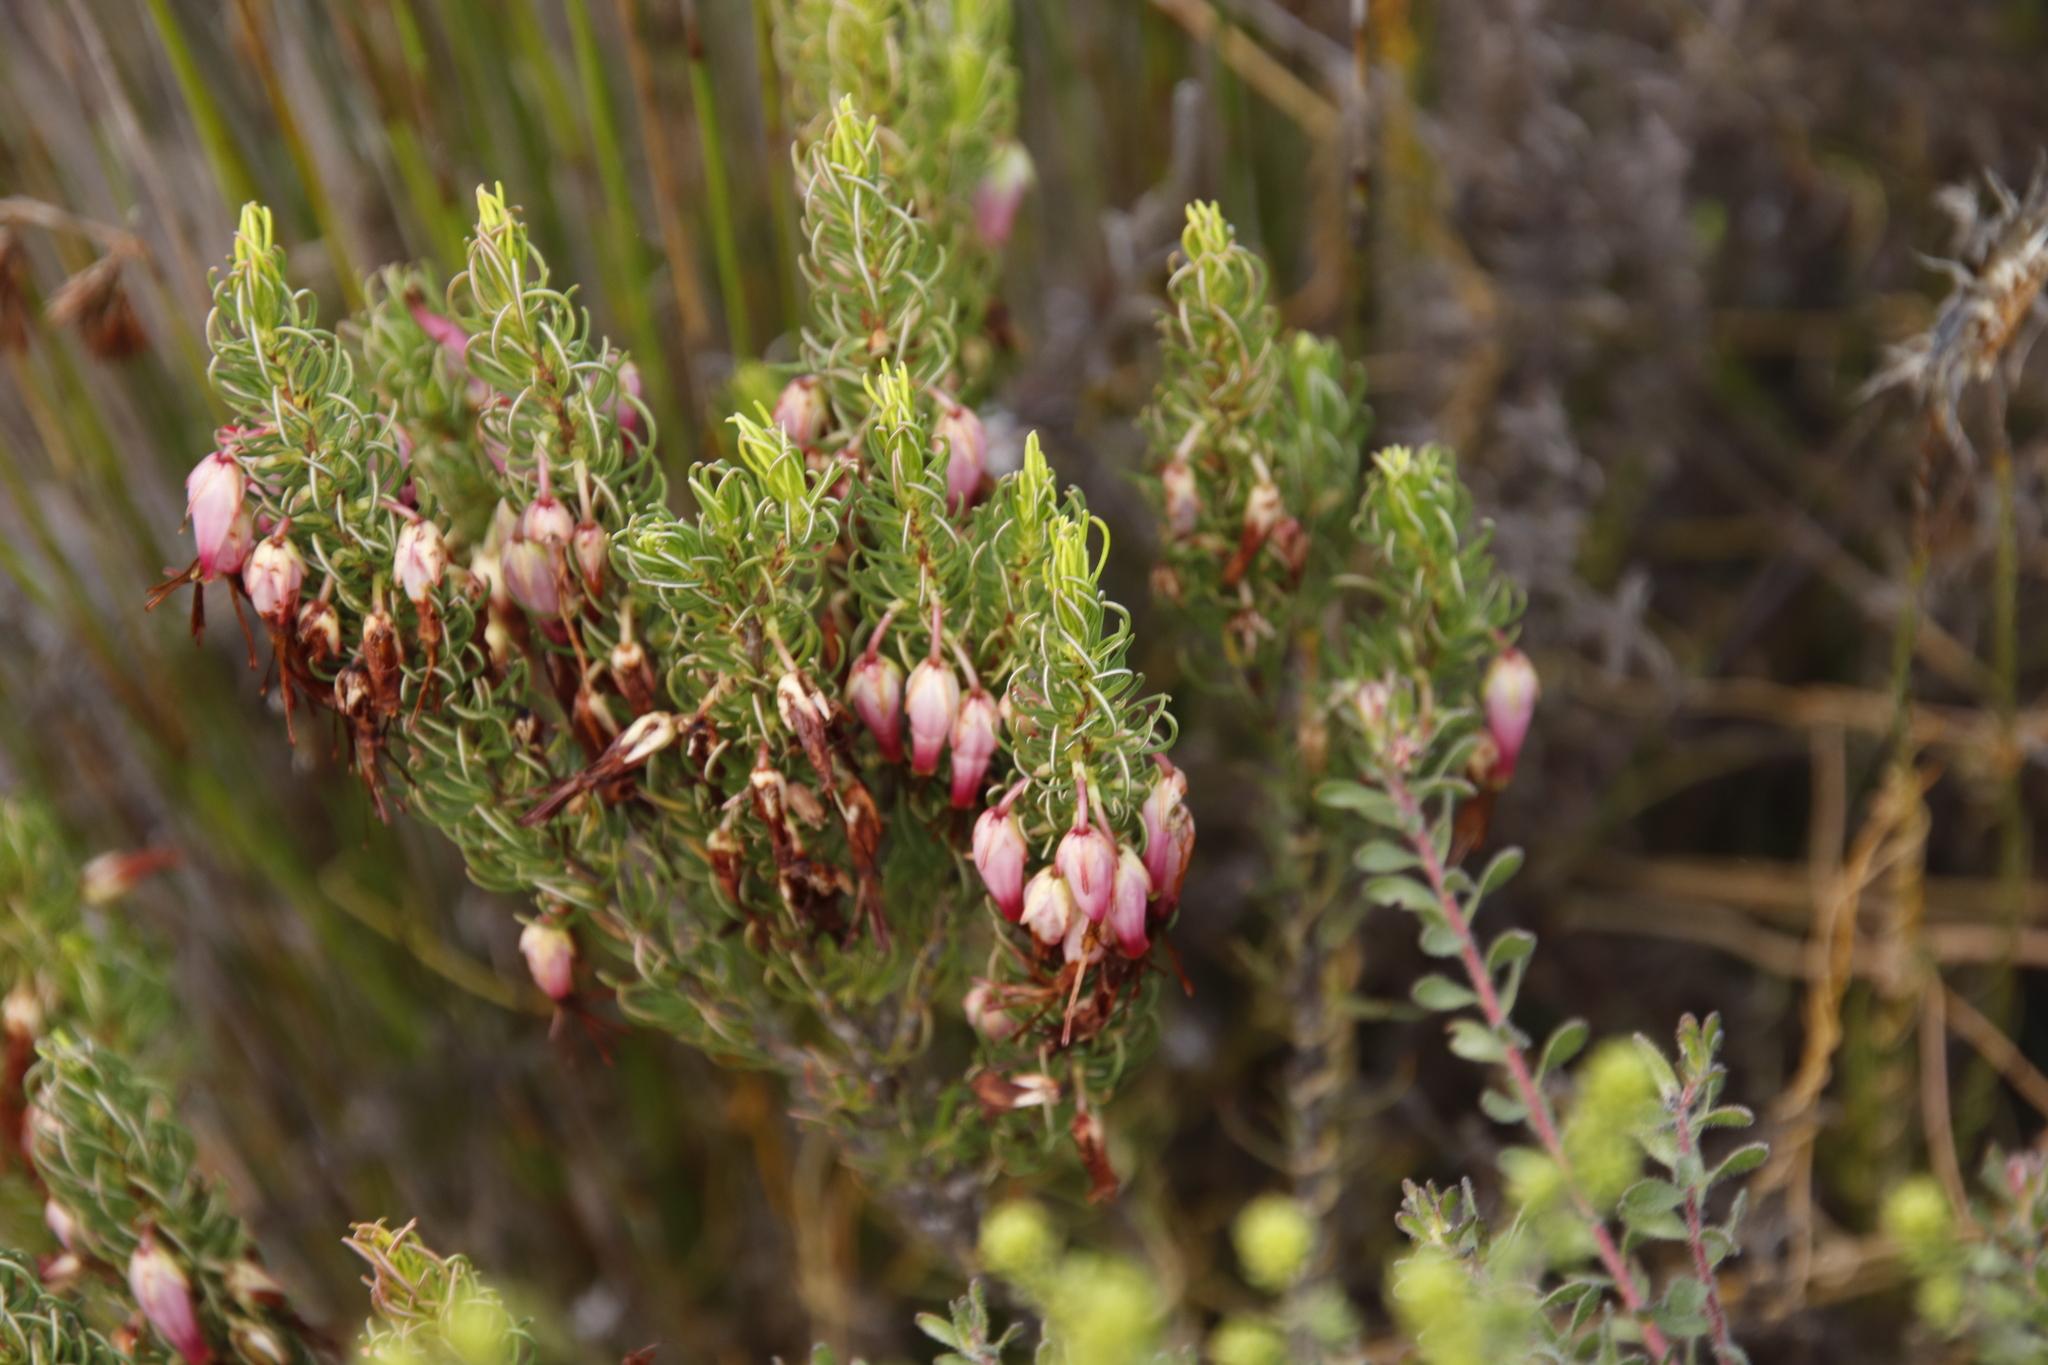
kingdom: Plantae
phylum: Tracheophyta
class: Magnoliopsida
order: Ericales
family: Ericaceae
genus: Erica
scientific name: Erica plukenetii
